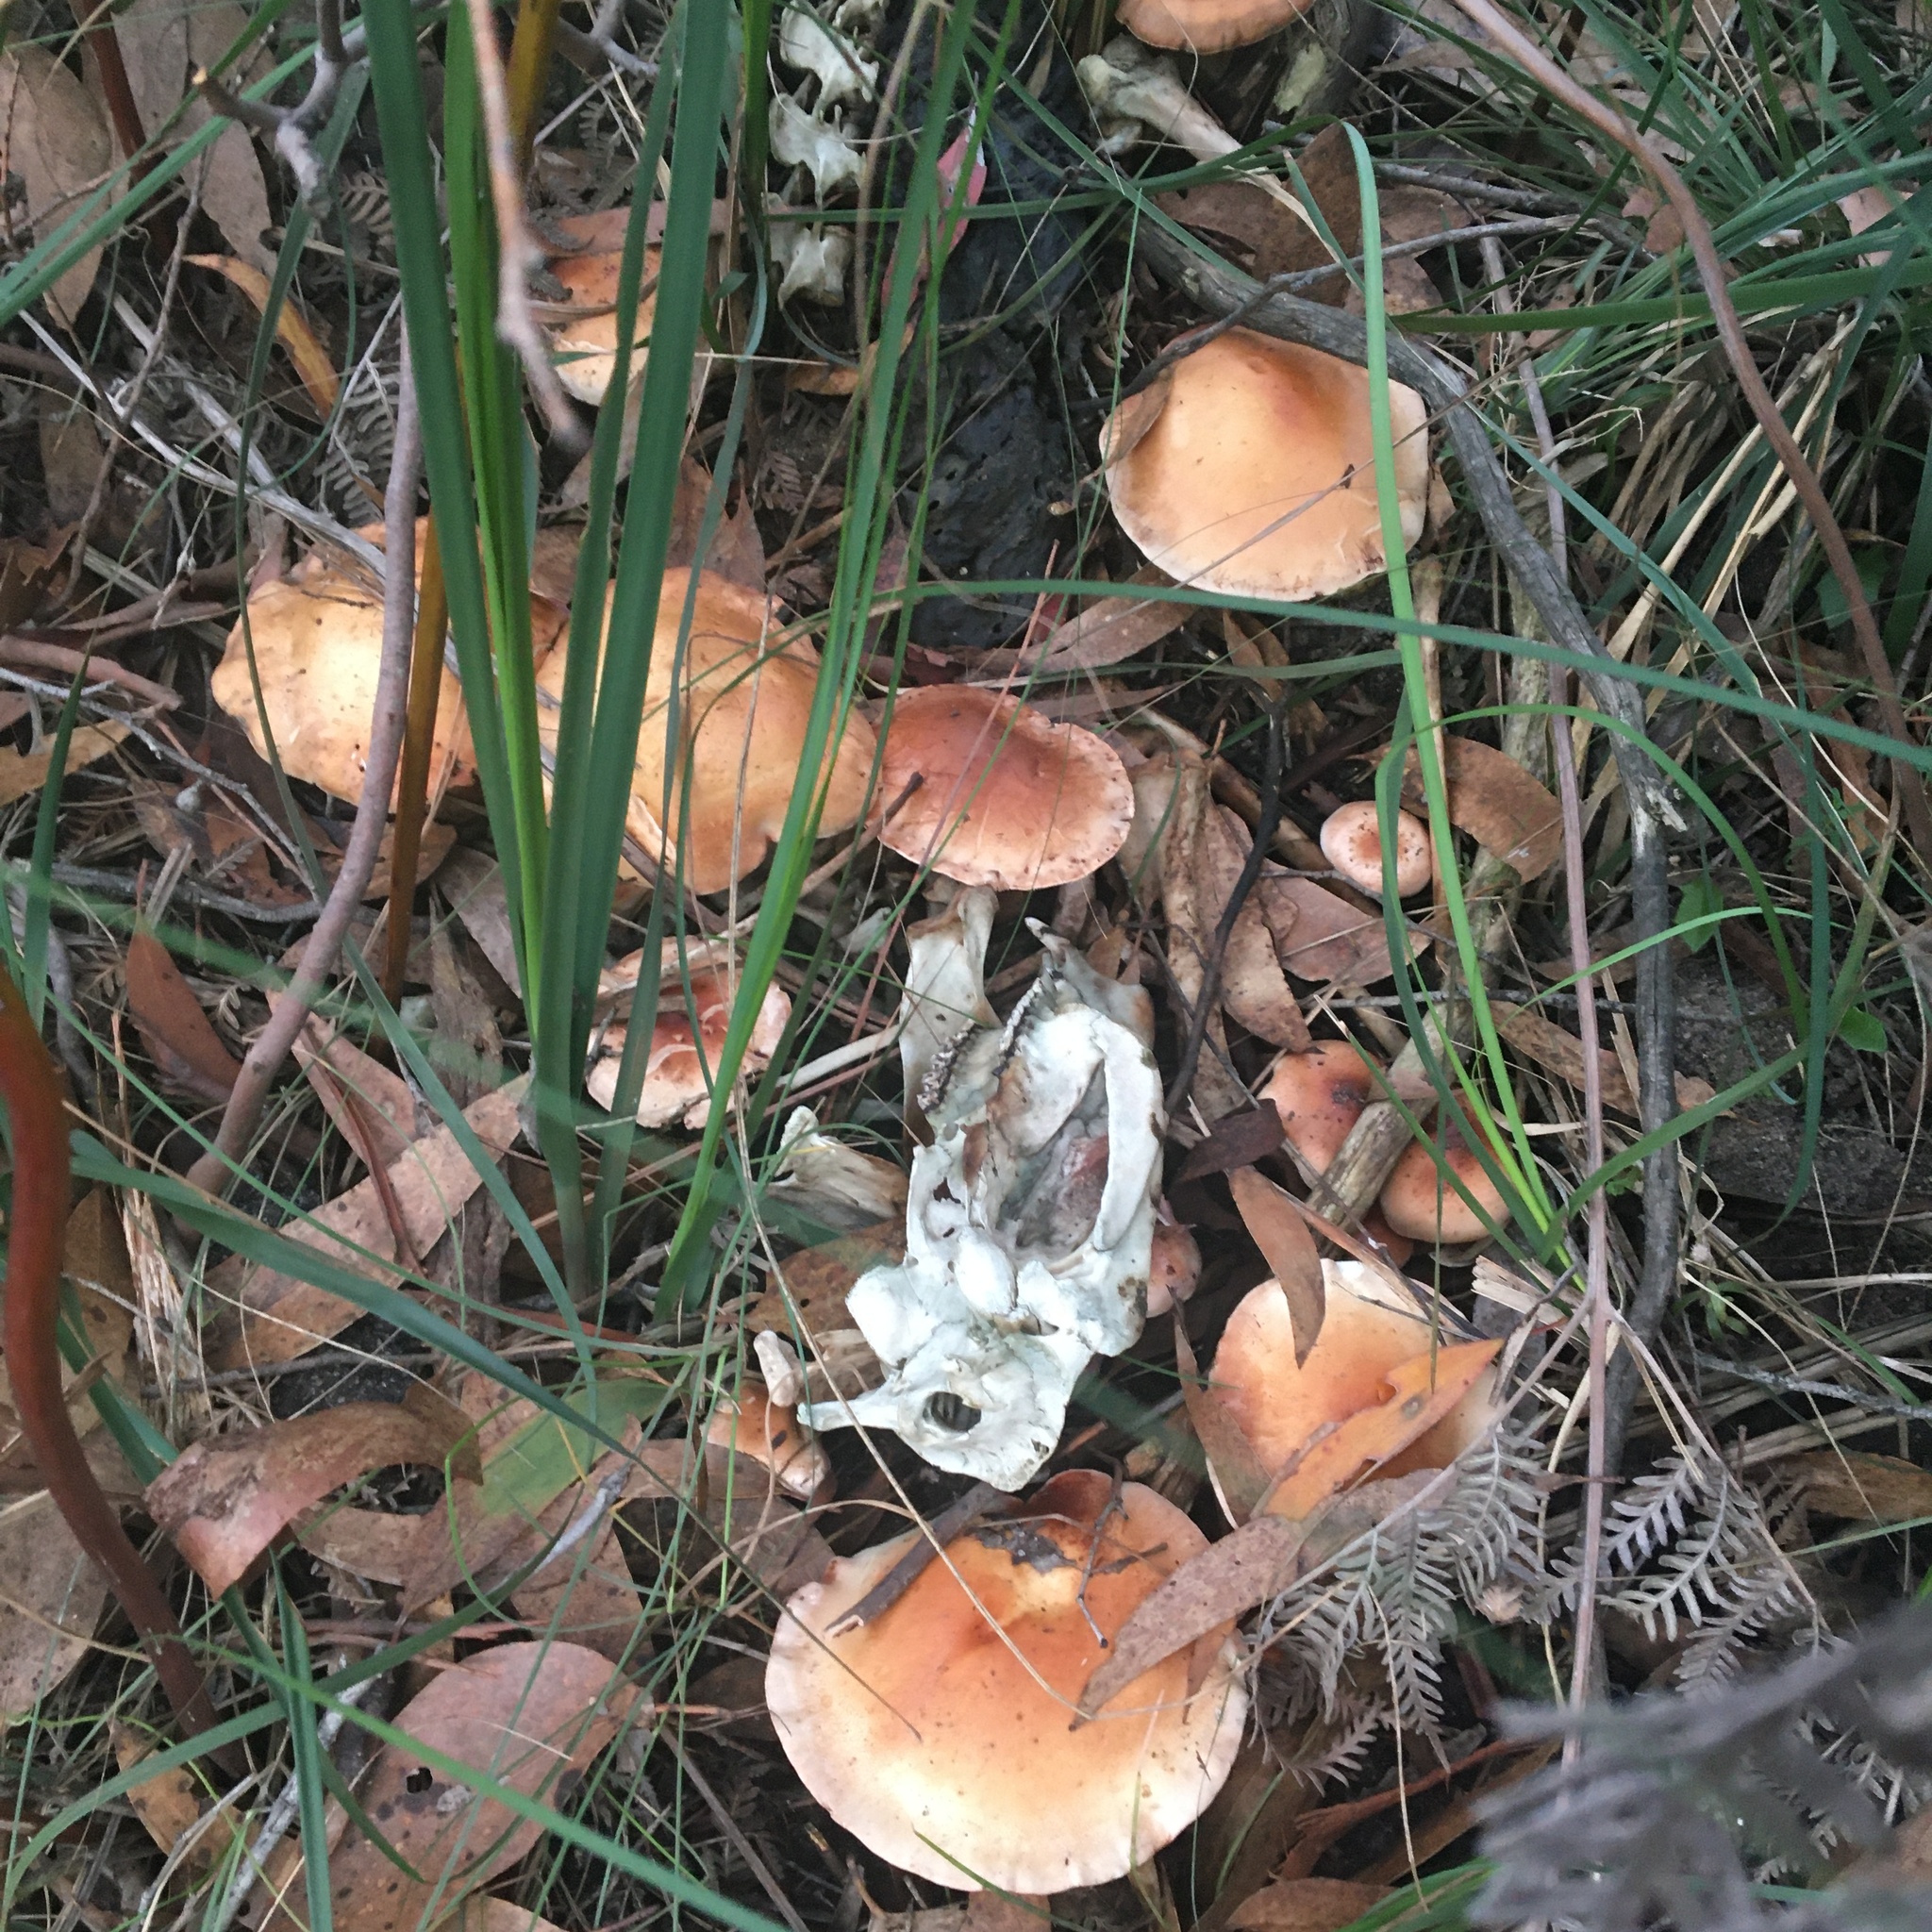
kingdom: Fungi
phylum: Basidiomycota
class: Agaricomycetes
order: Agaricales
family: Hymenogastraceae
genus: Hebeloma
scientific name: Hebeloma aminophilum
